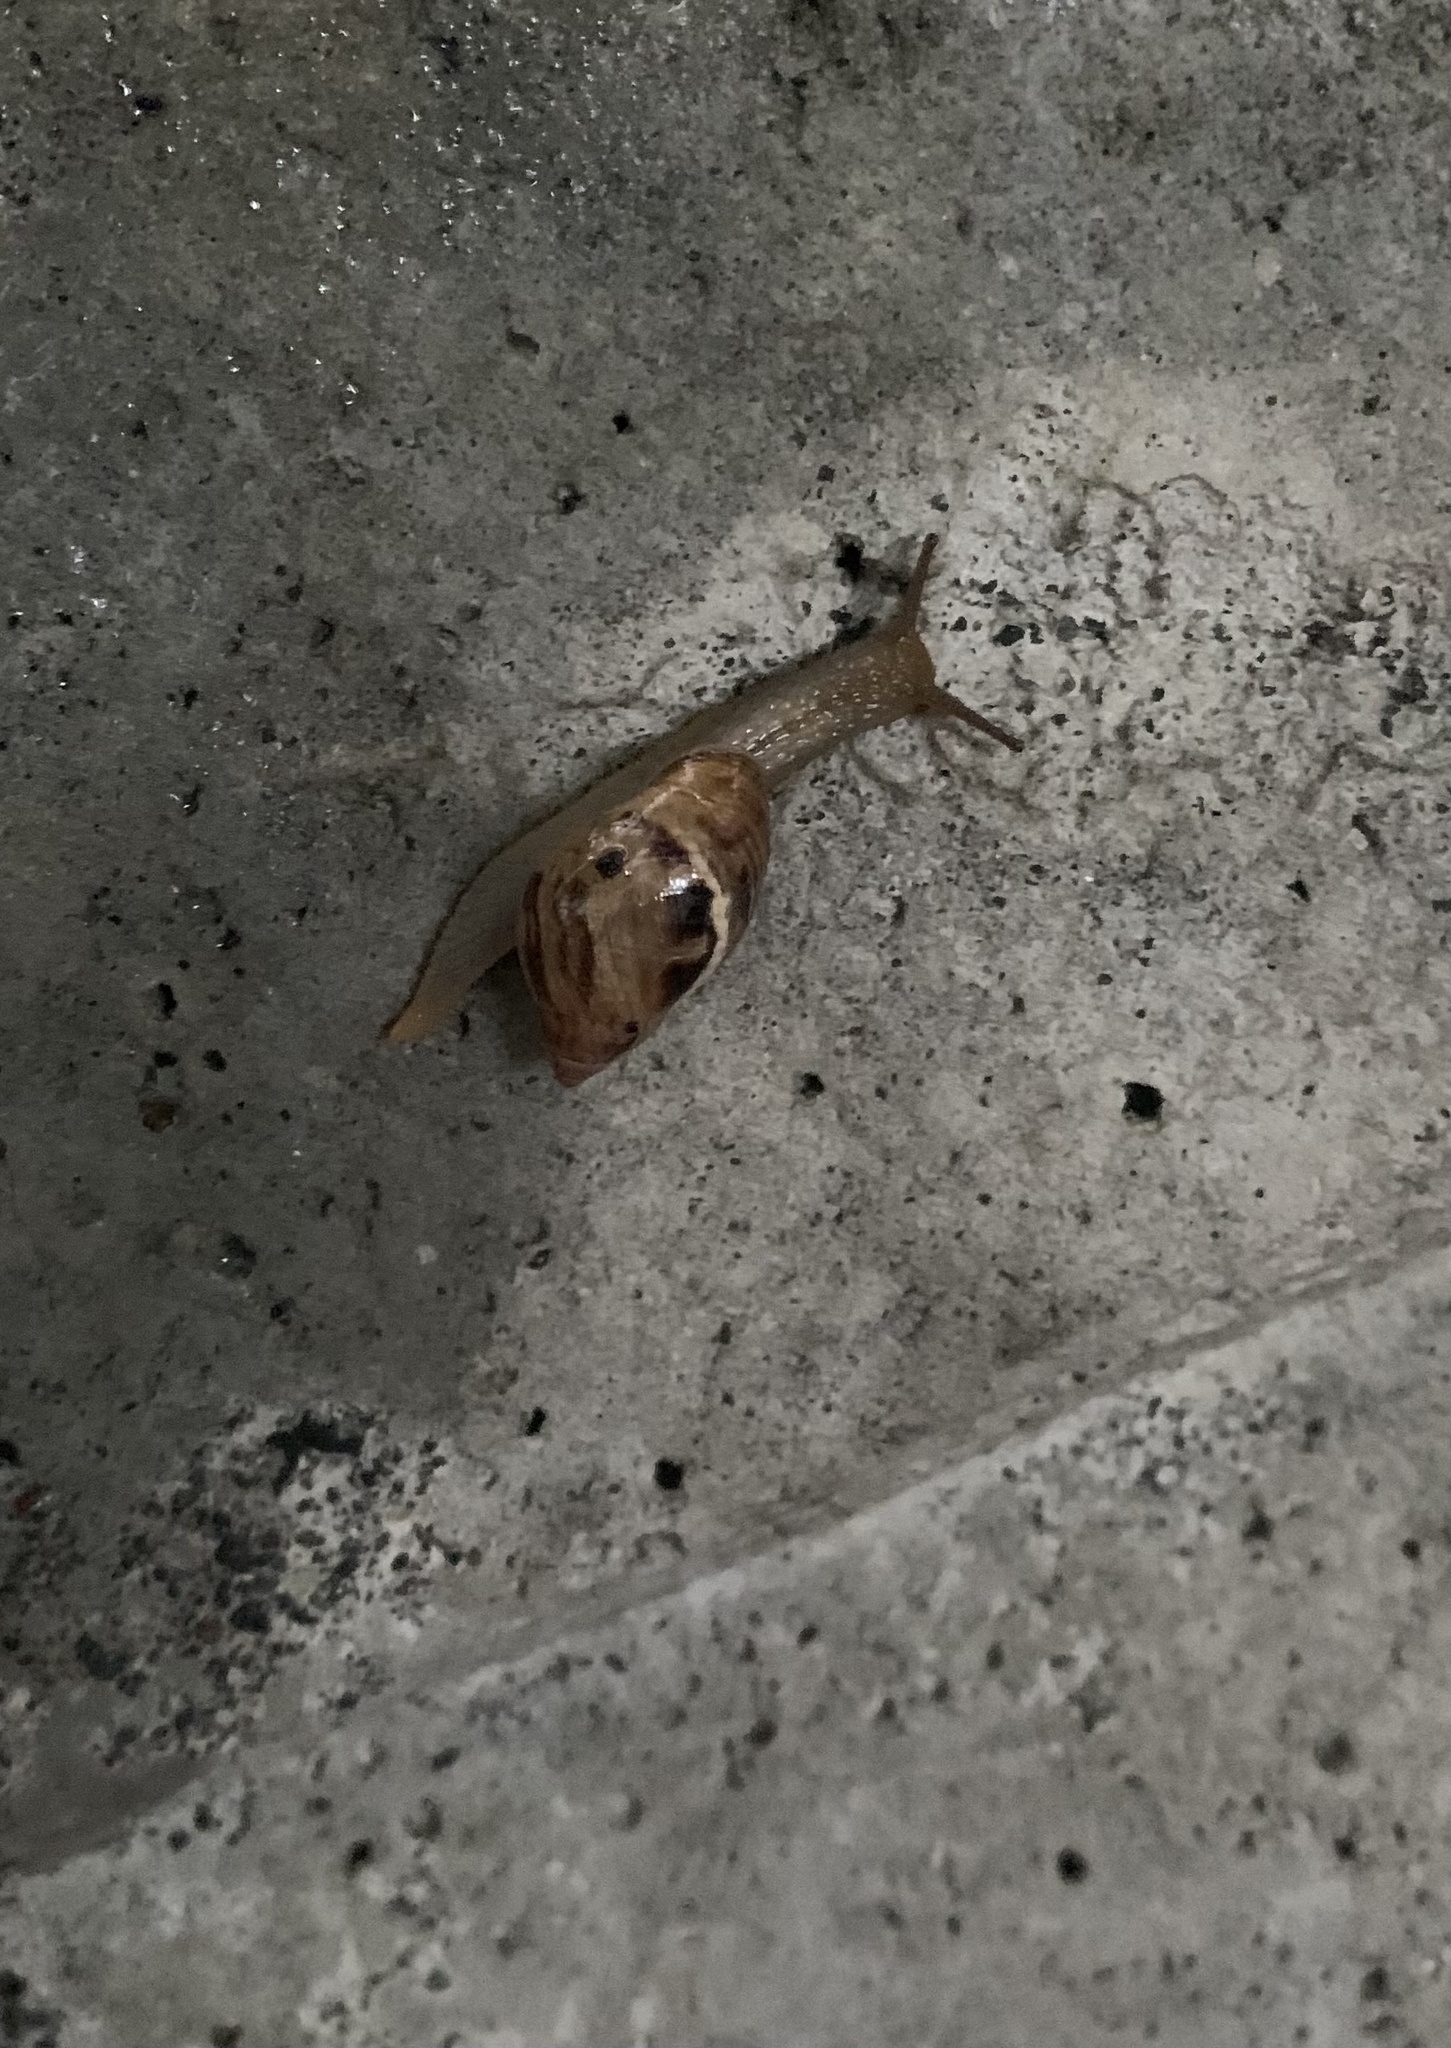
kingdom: Animalia
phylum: Mollusca
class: Gastropoda
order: Stylommatophora
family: Bothriembryontidae
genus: Plectostylus
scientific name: Plectostylus
